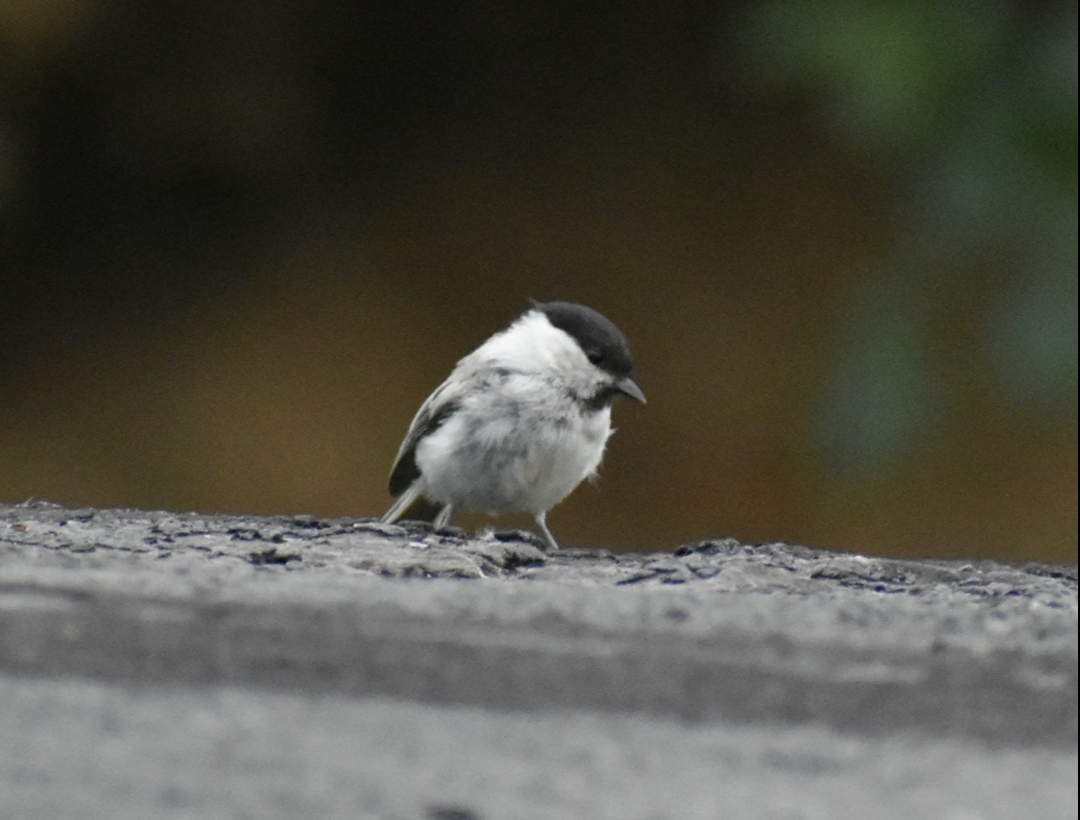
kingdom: Animalia
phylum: Chordata
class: Aves
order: Passeriformes
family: Paridae
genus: Poecile
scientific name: Poecile montanus
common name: Willow tit
